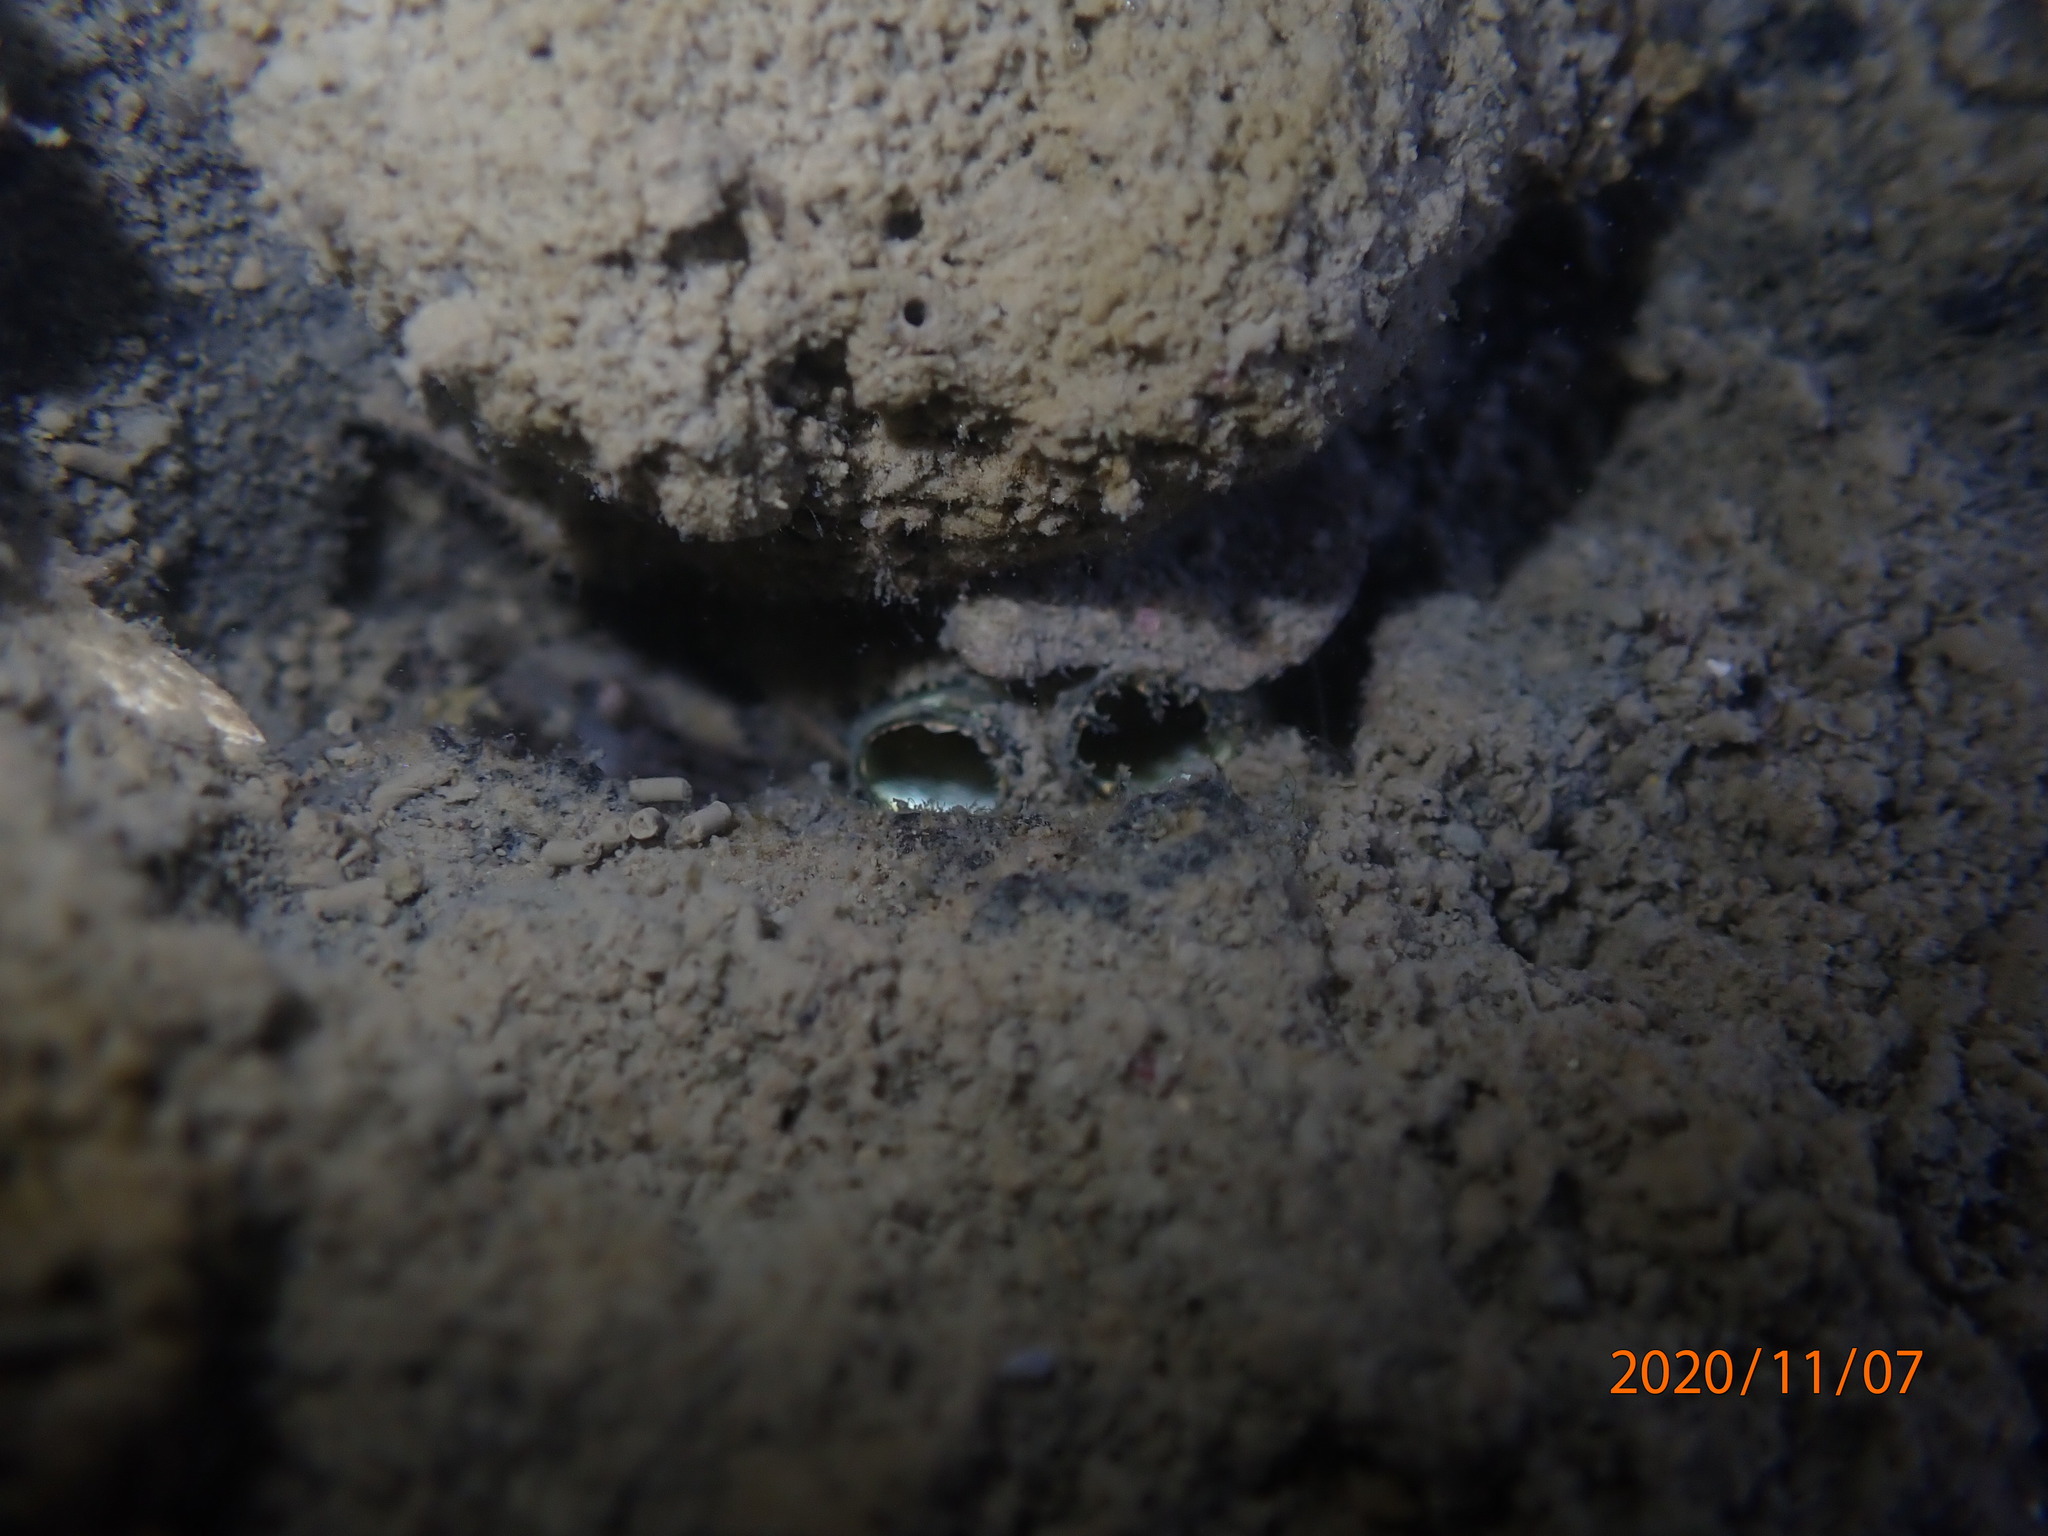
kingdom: Animalia
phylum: Mollusca
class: Bivalvia
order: Venerida
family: Mesodesmatidae
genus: Paphies
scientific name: Paphies australis
